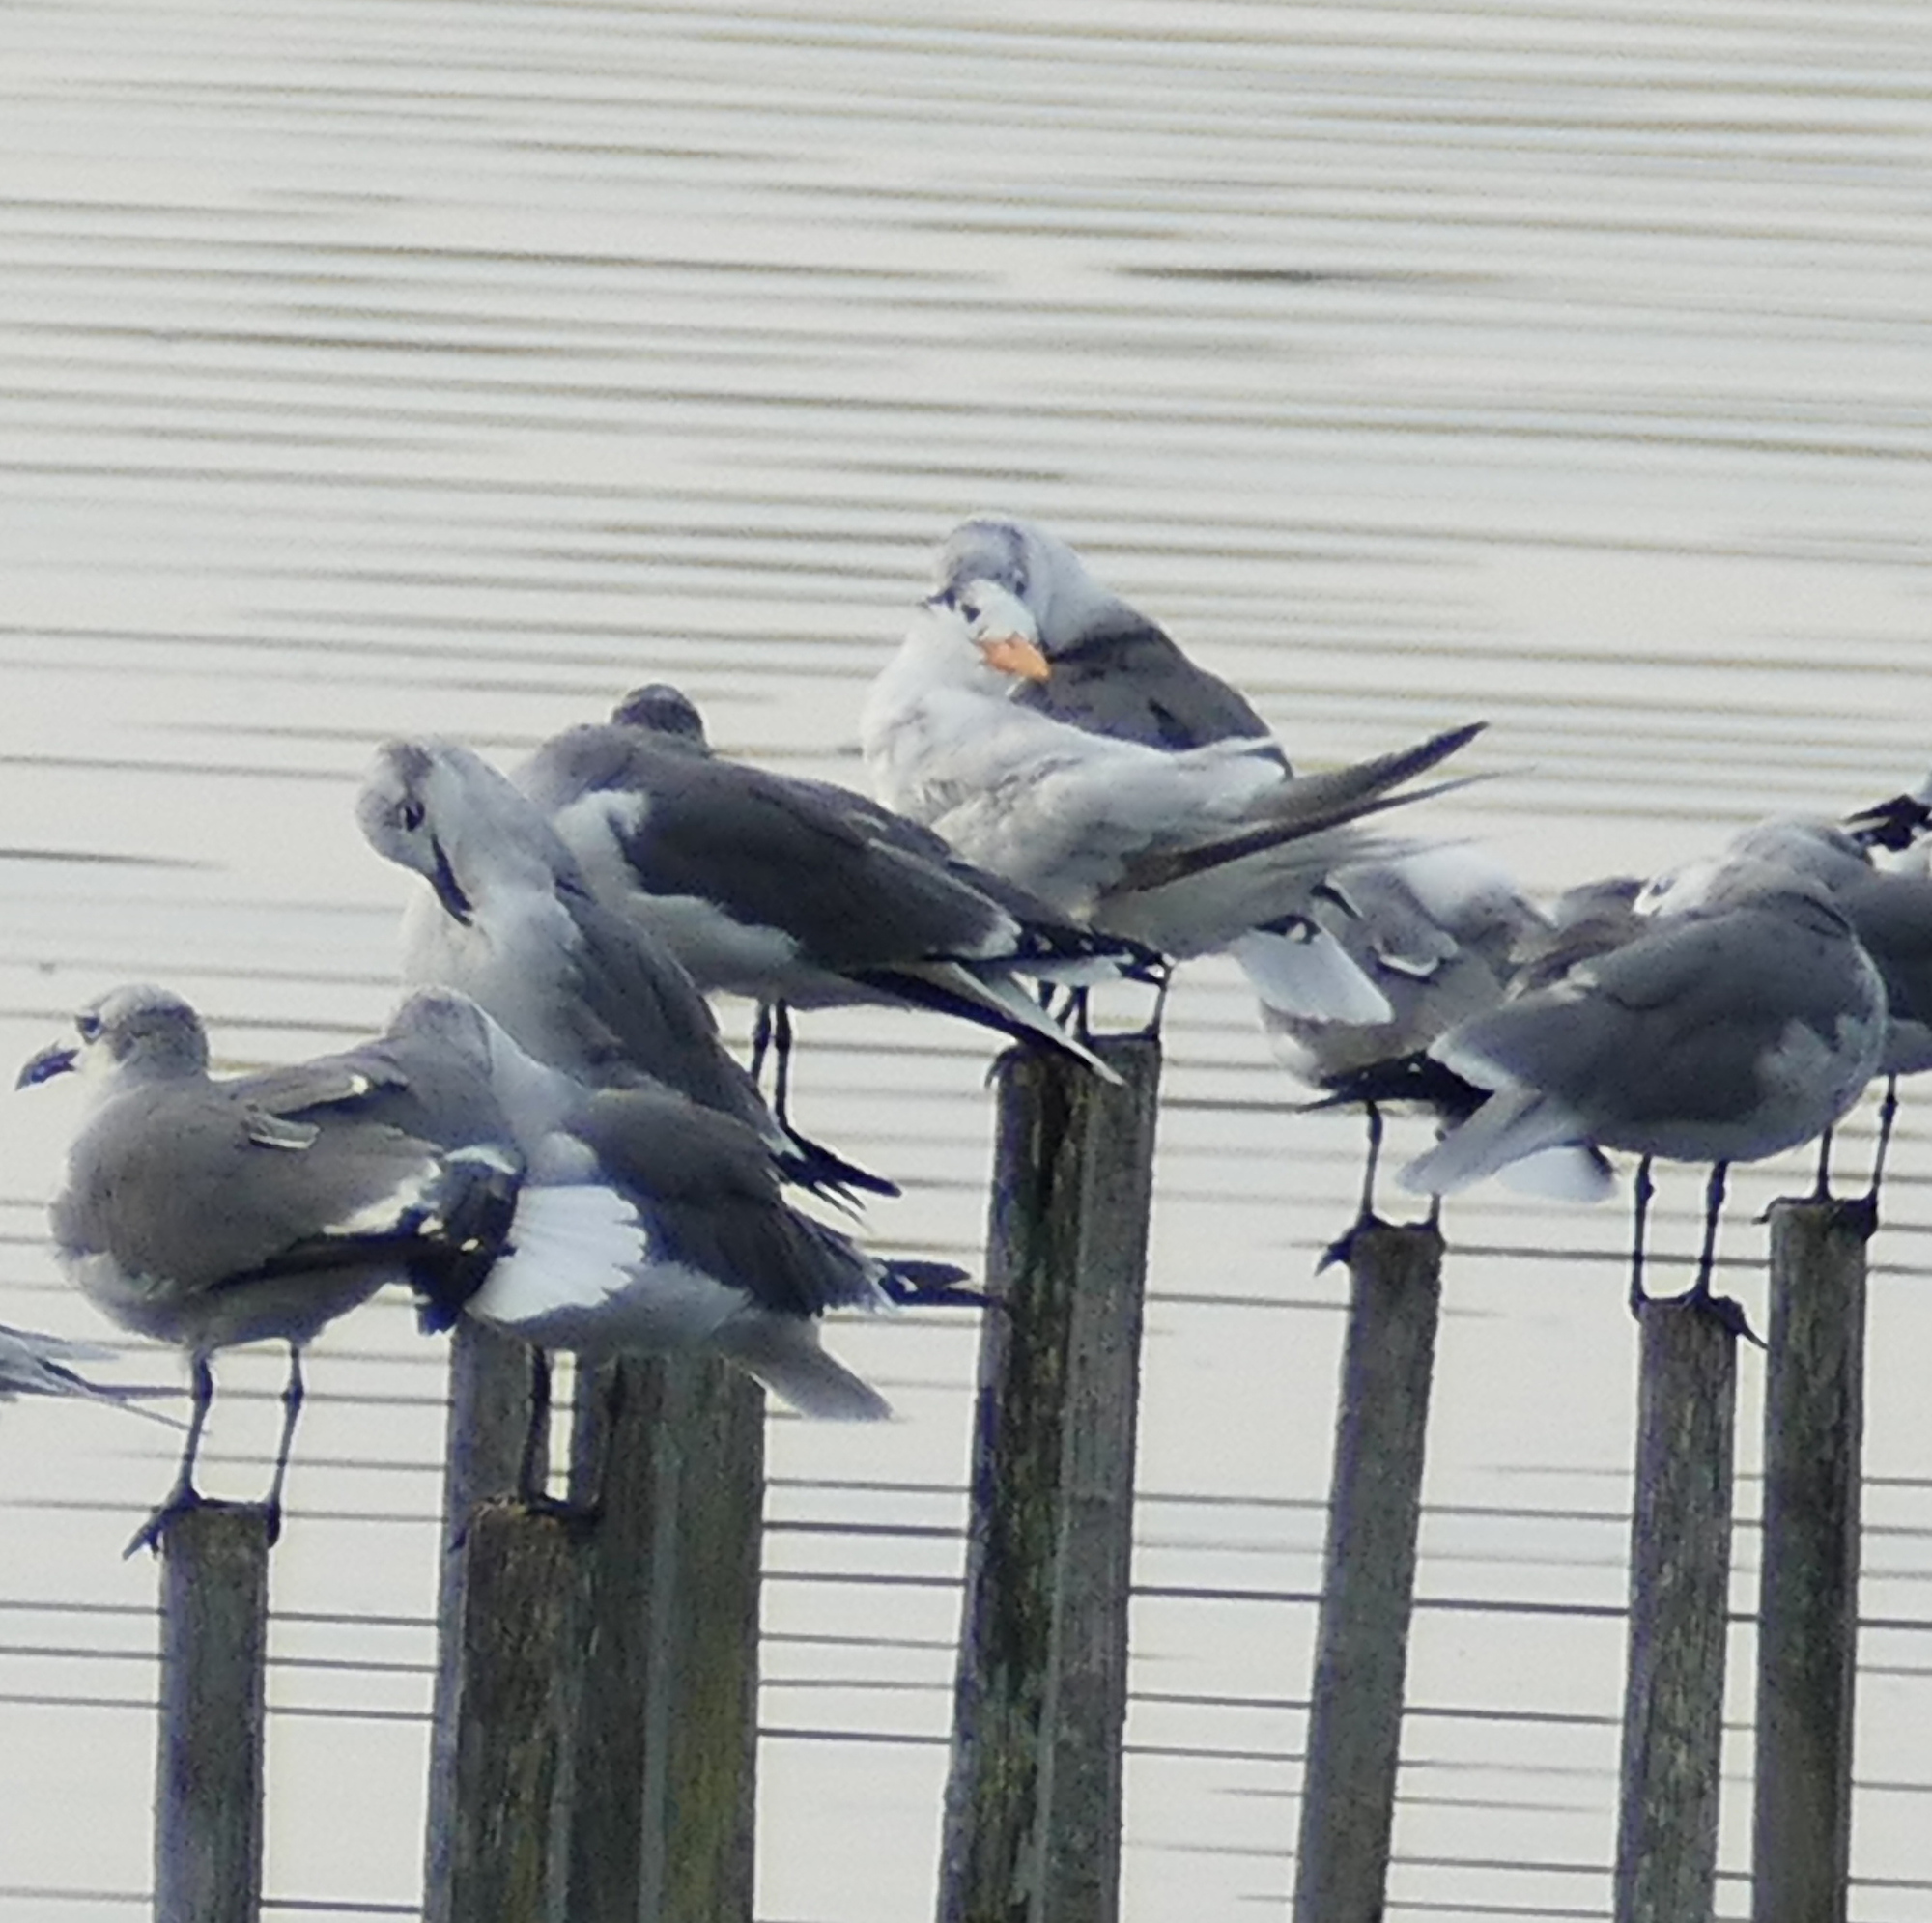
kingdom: Animalia
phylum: Chordata
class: Aves
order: Charadriiformes
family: Laridae
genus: Thalasseus
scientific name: Thalasseus maximus
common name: Royal tern
